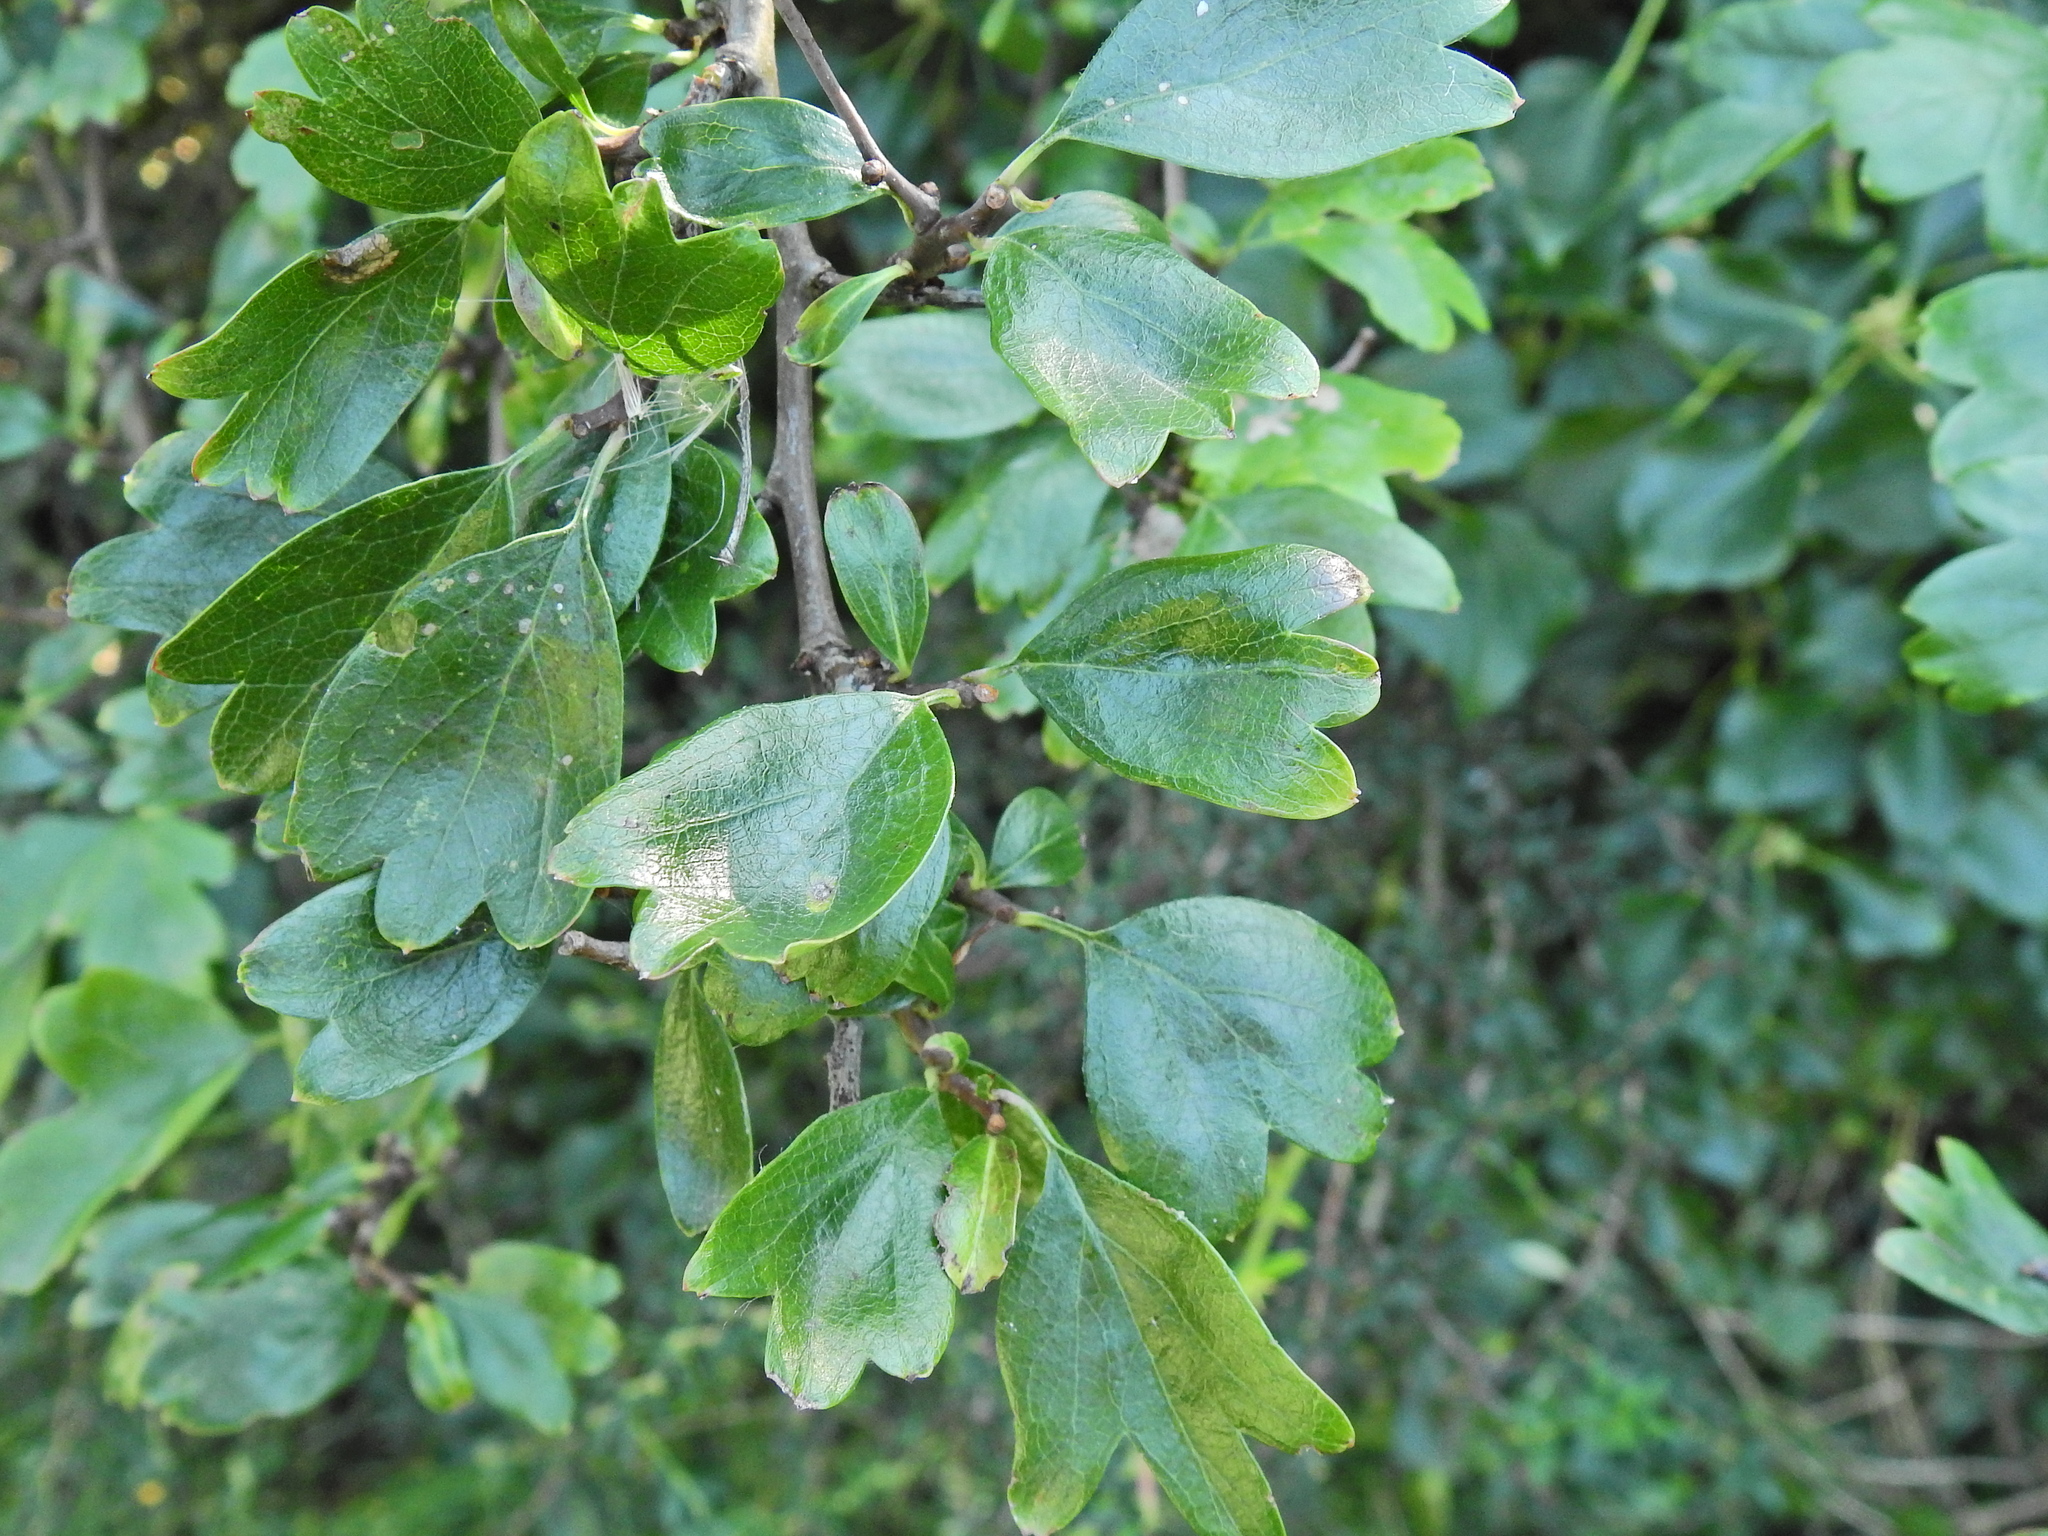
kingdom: Plantae
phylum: Tracheophyta
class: Magnoliopsida
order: Rosales
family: Rosaceae
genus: Crataegus
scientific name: Crataegus media
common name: Intermediate hawthorn
